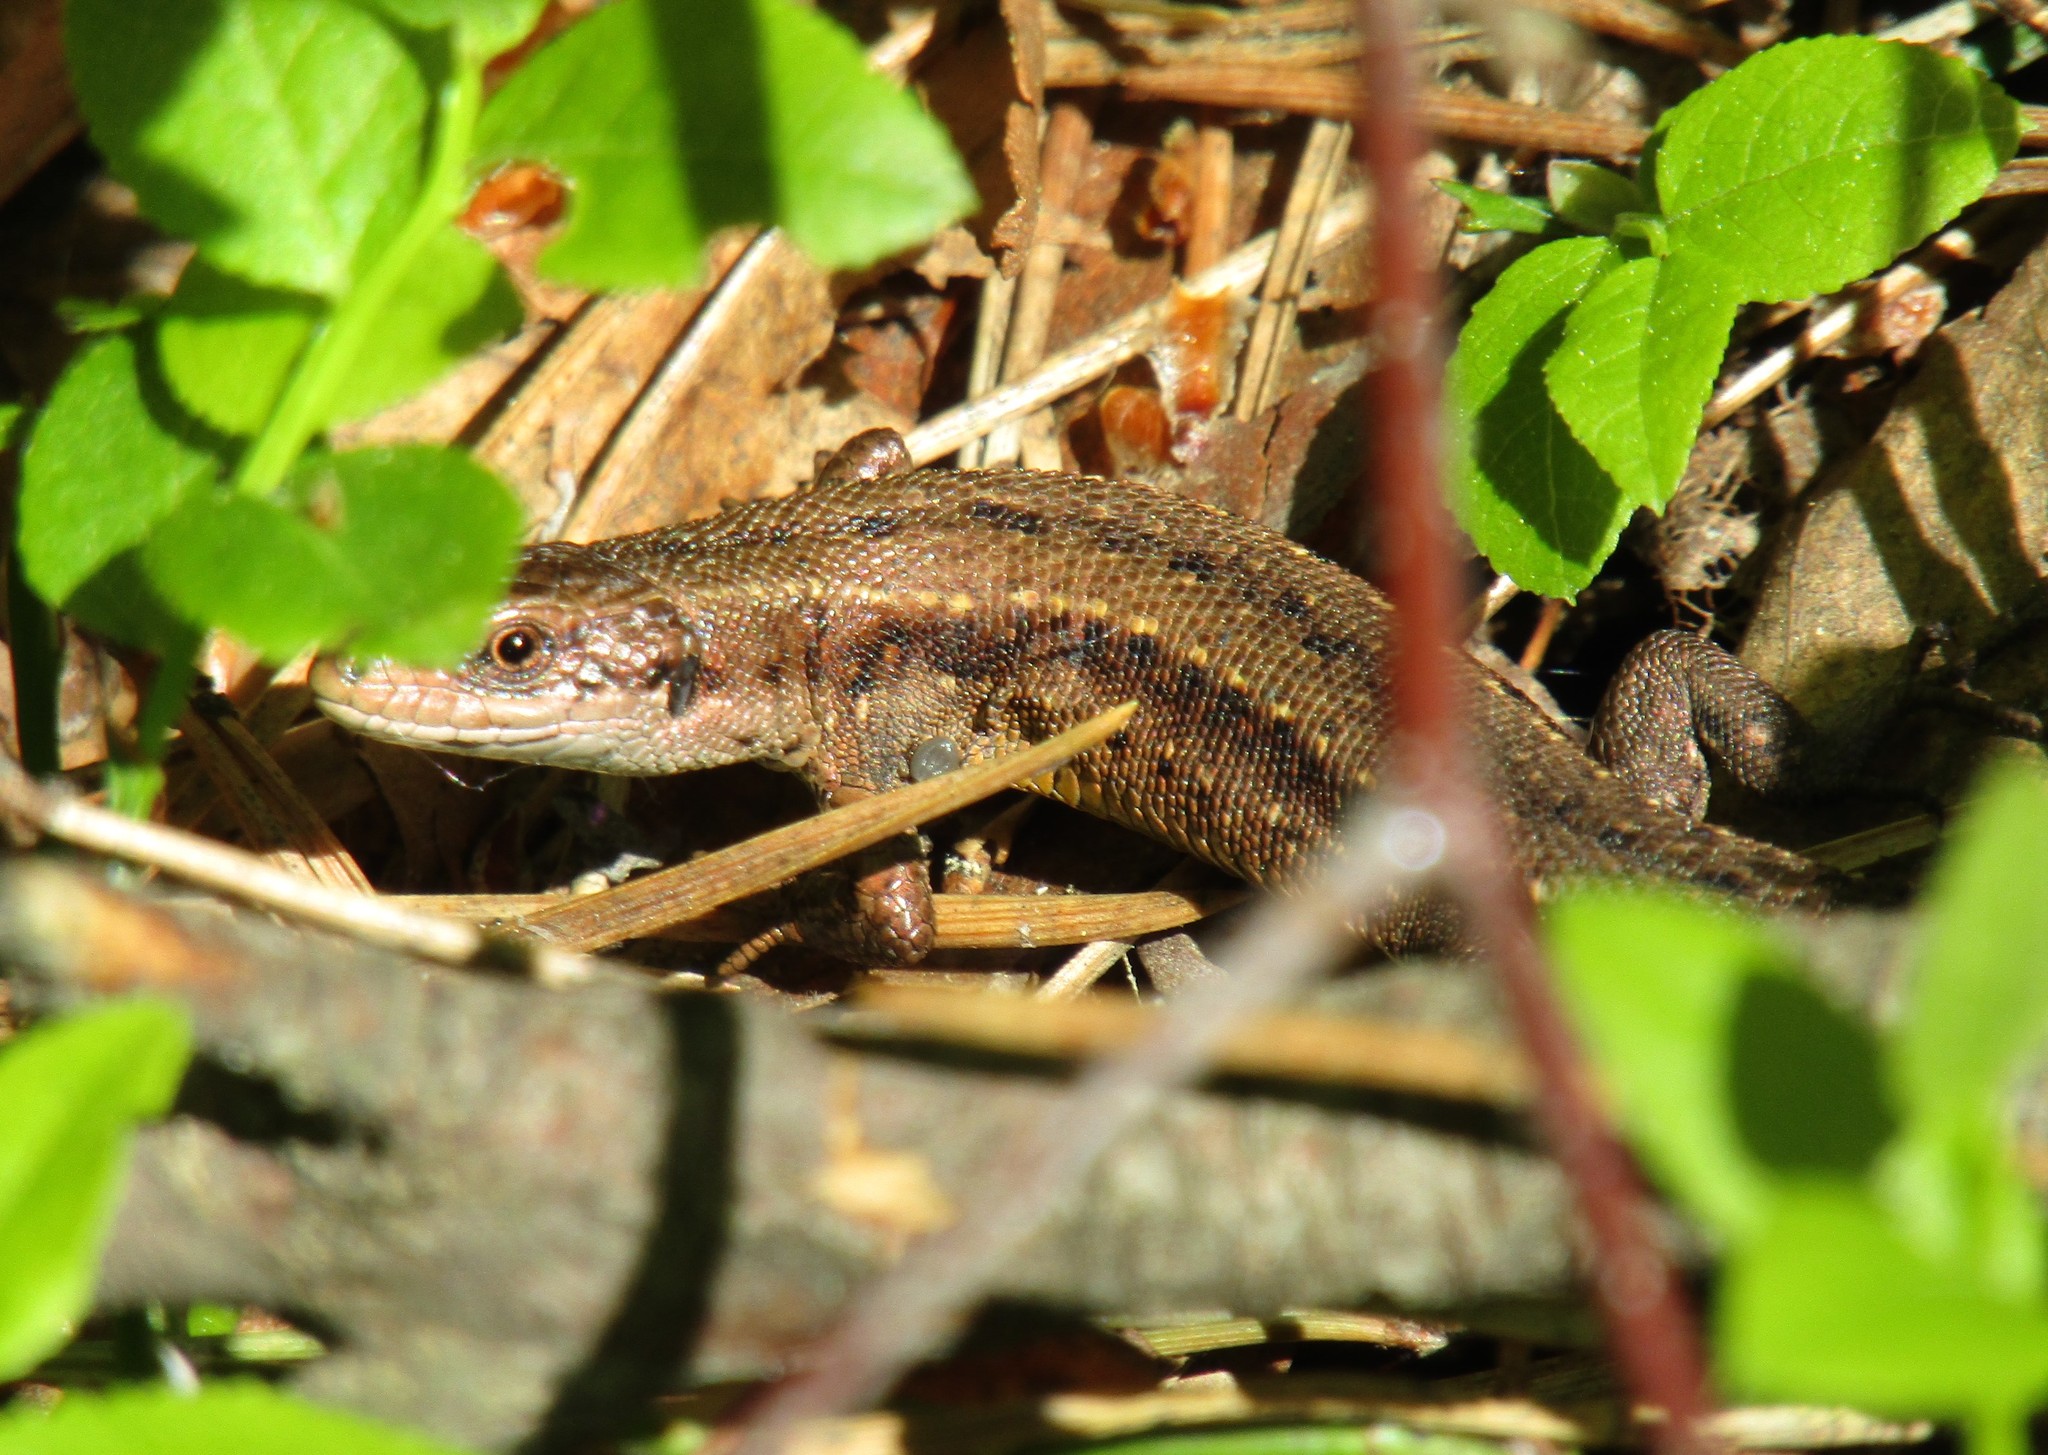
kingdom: Animalia
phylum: Chordata
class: Squamata
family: Lacertidae
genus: Zootoca
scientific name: Zootoca vivipara
